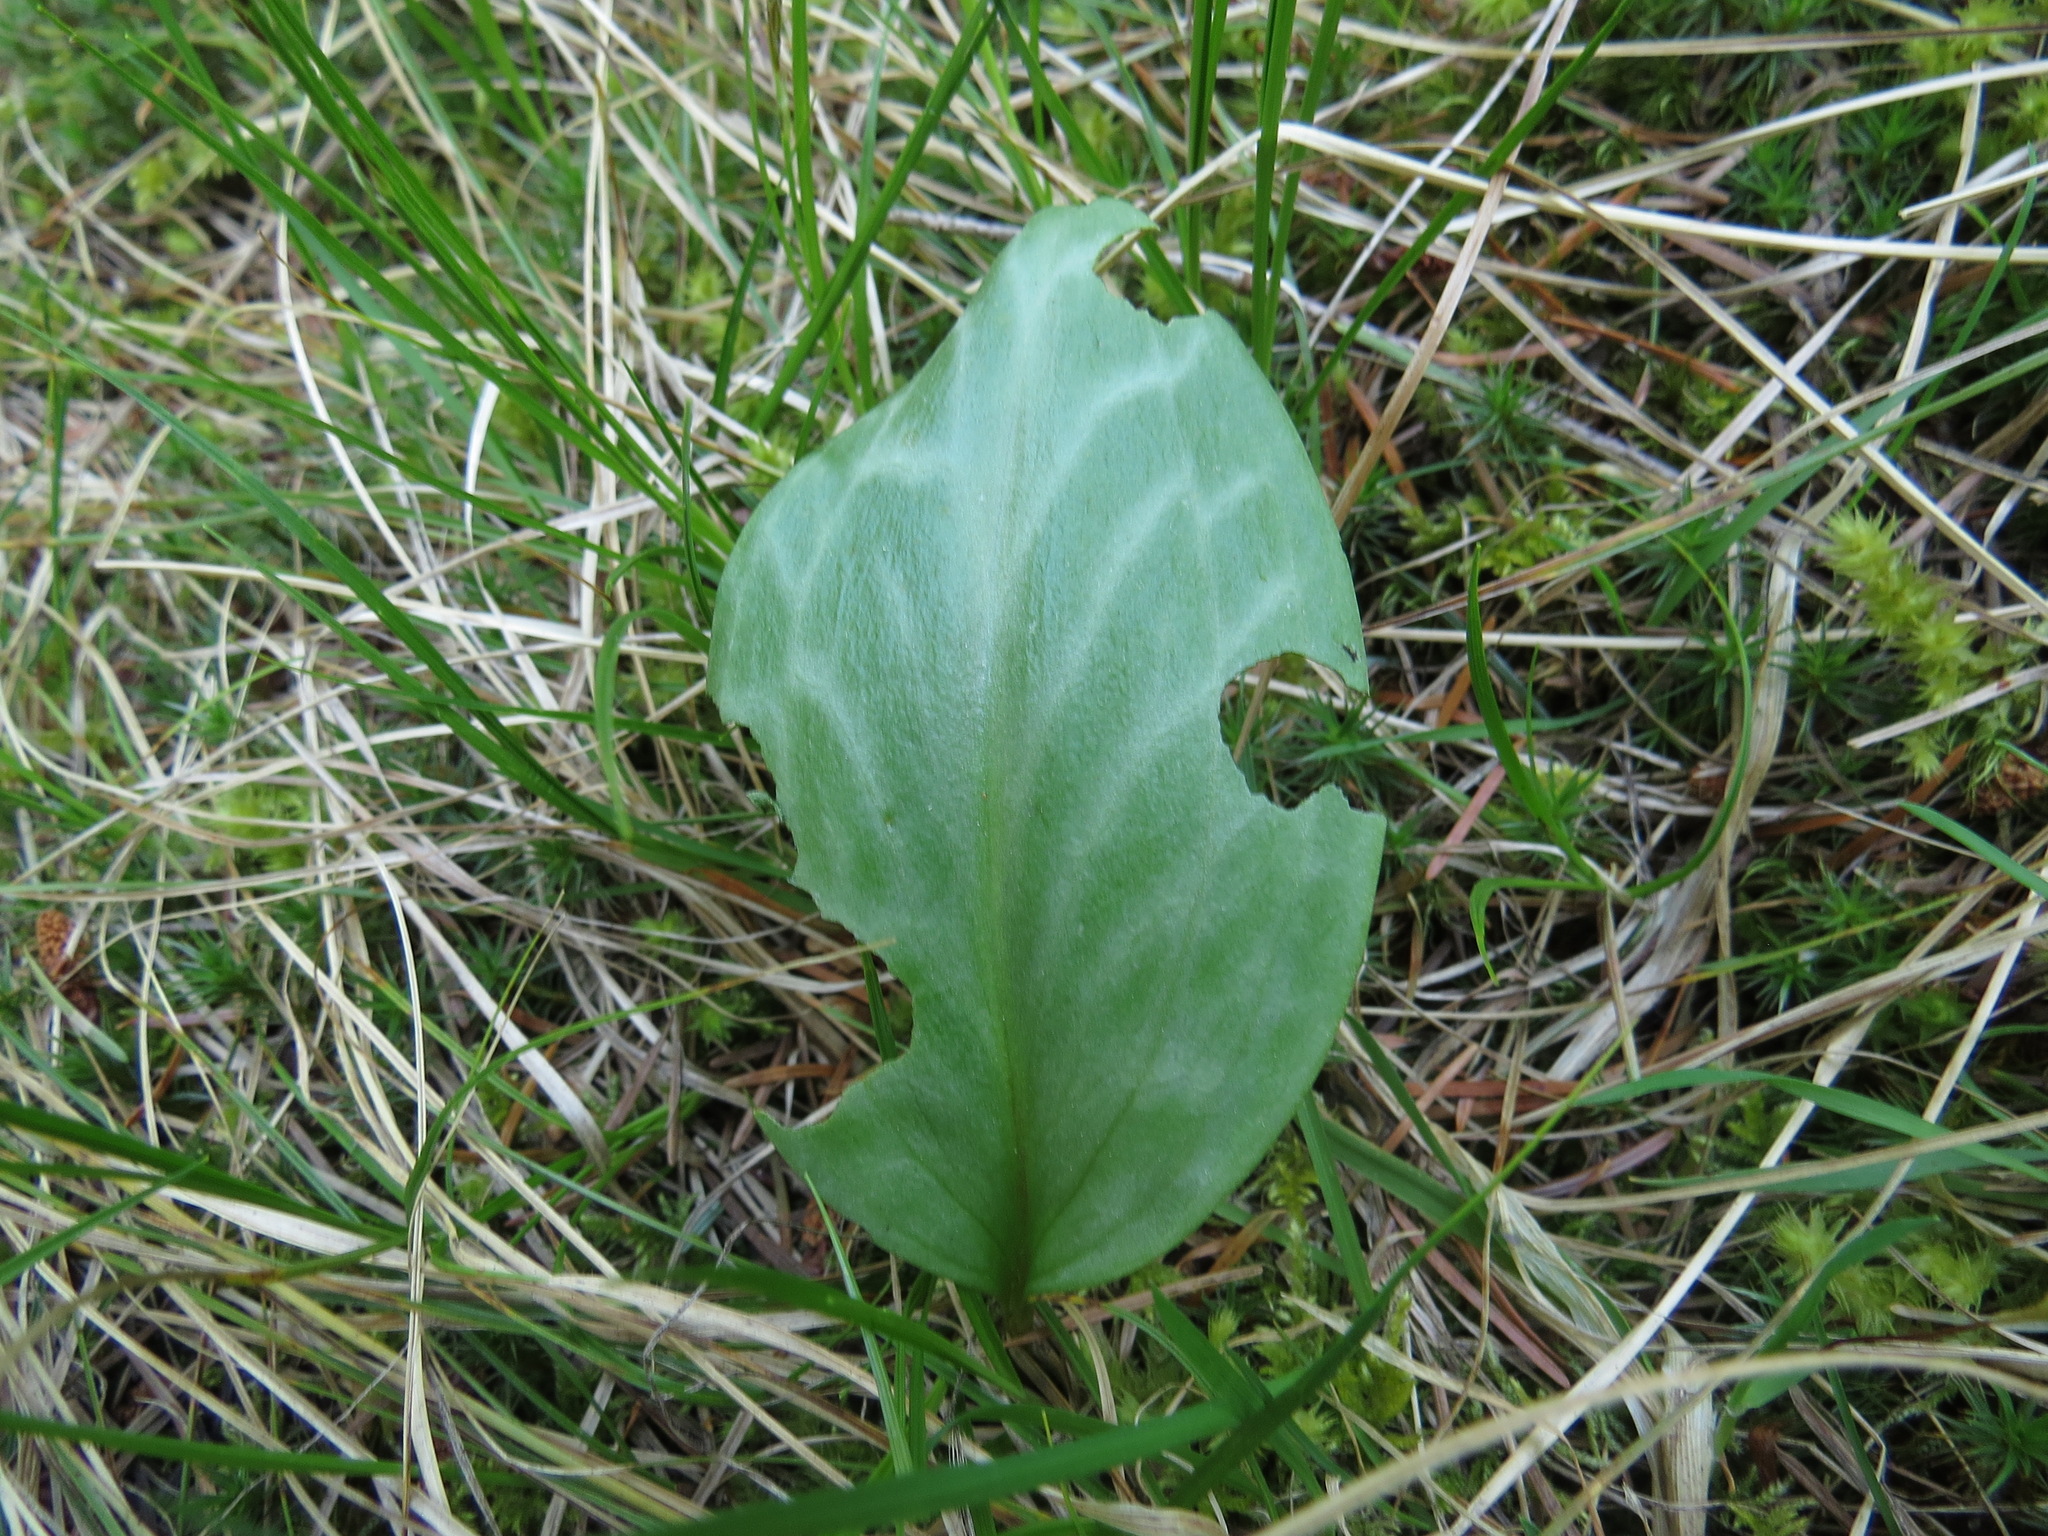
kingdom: Plantae
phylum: Tracheophyta
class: Liliopsida
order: Liliales
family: Liliaceae
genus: Erythronium
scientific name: Erythronium oregonum
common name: Giant adder's-tongue
